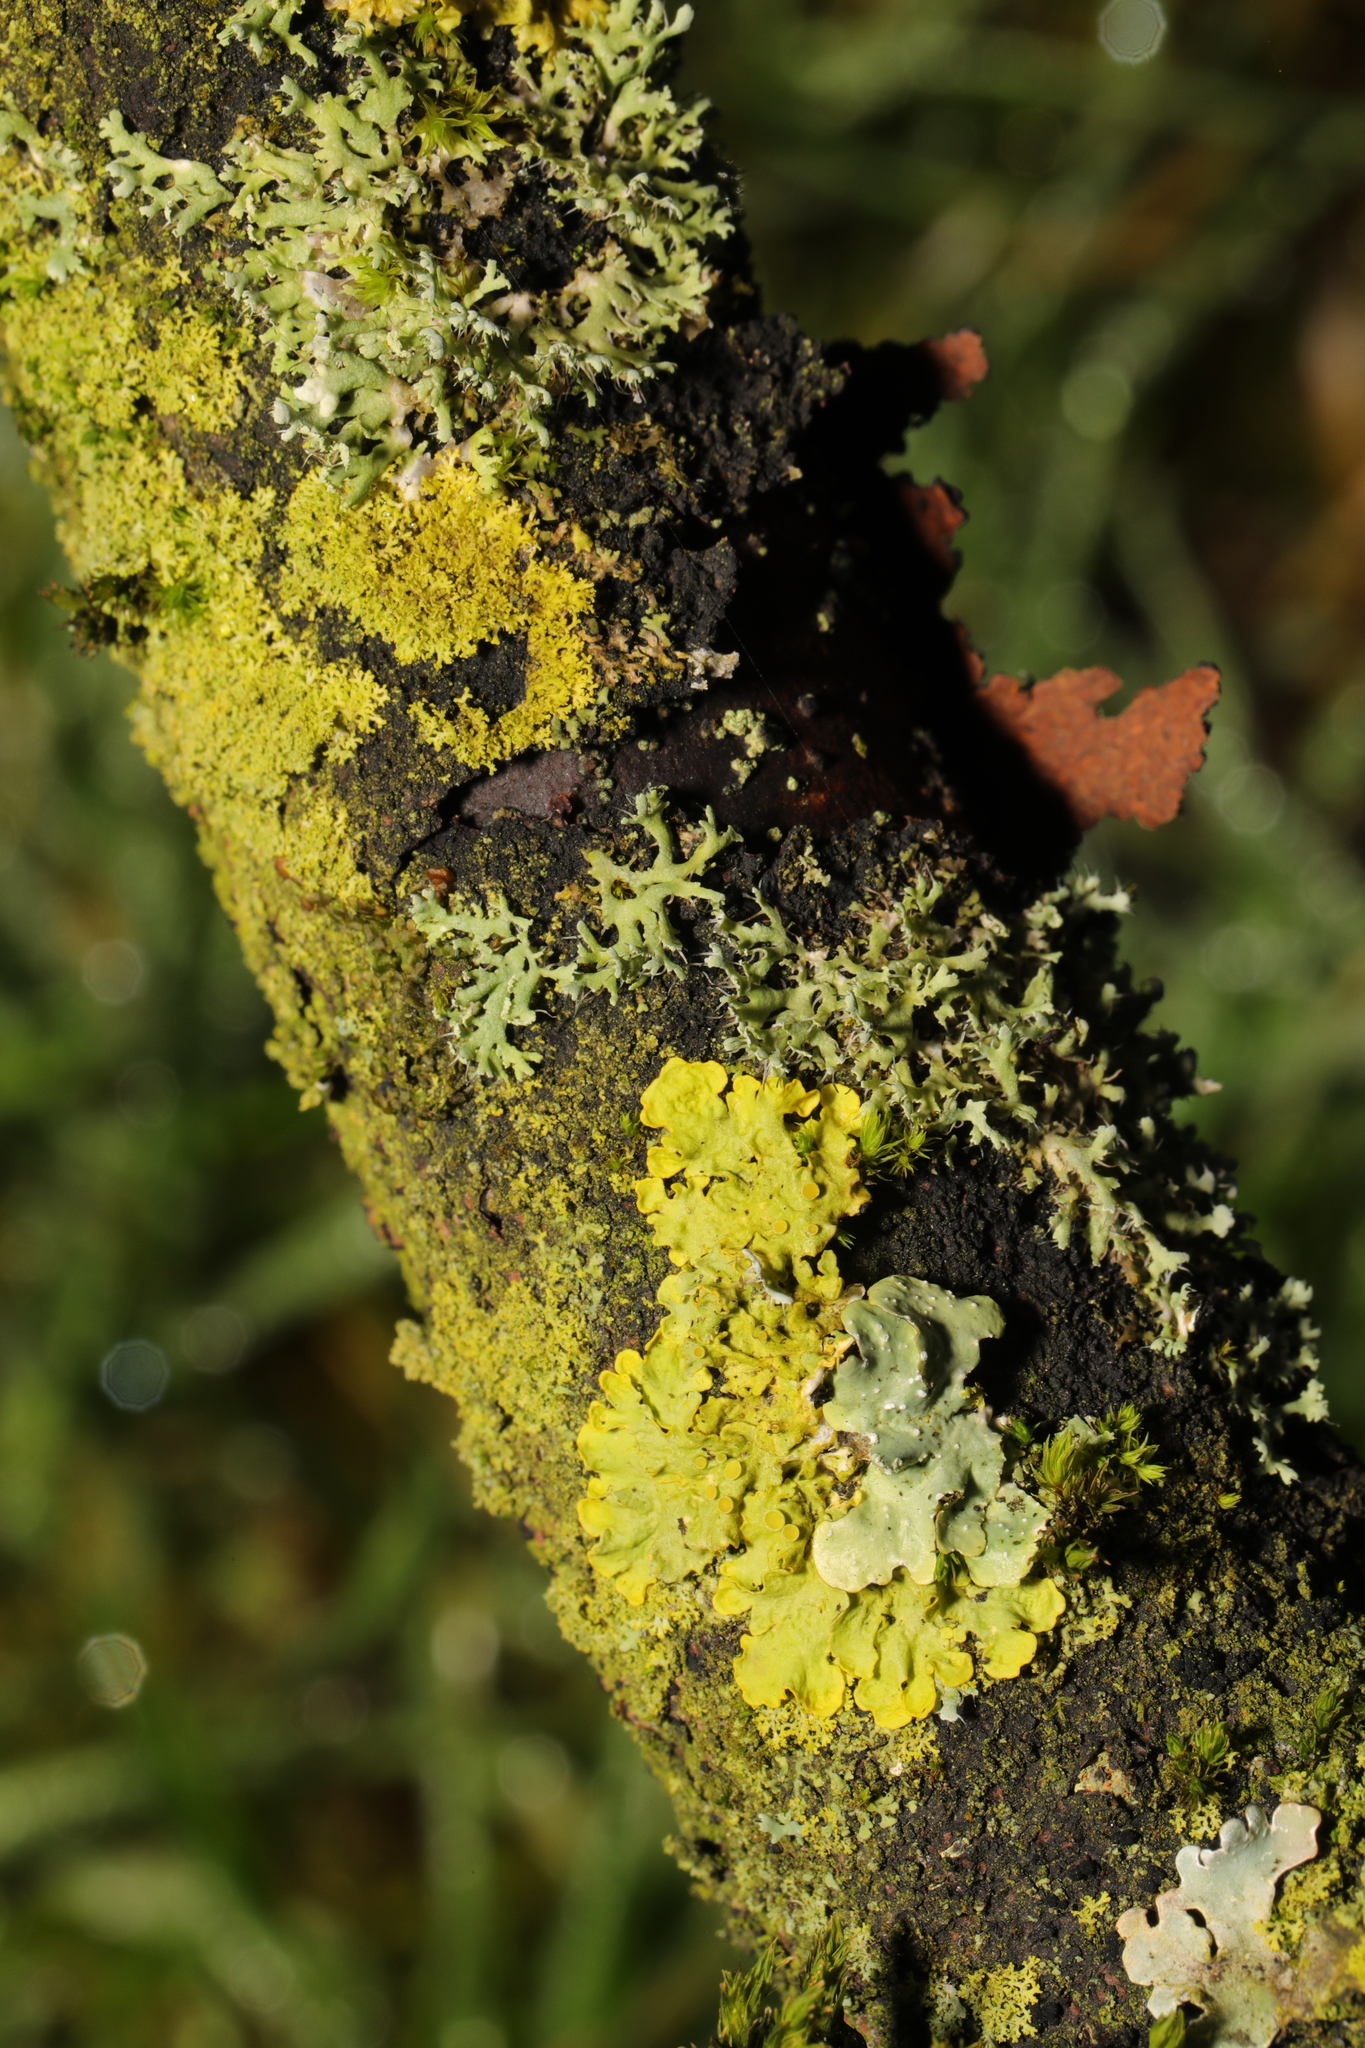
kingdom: Fungi
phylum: Ascomycota
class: Lecanoromycetes
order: Teloschistales
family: Teloschistaceae
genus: Xanthoria
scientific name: Xanthoria parietina
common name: Common orange lichen
